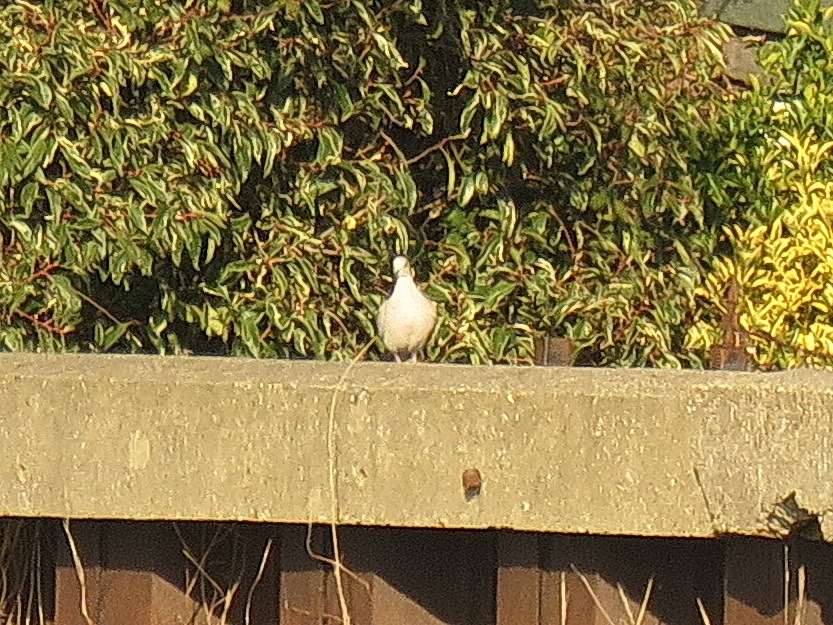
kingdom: Animalia
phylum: Chordata
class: Aves
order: Columbiformes
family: Columbidae
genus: Streptopelia
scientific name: Streptopelia decaocto
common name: Eurasian collared dove
